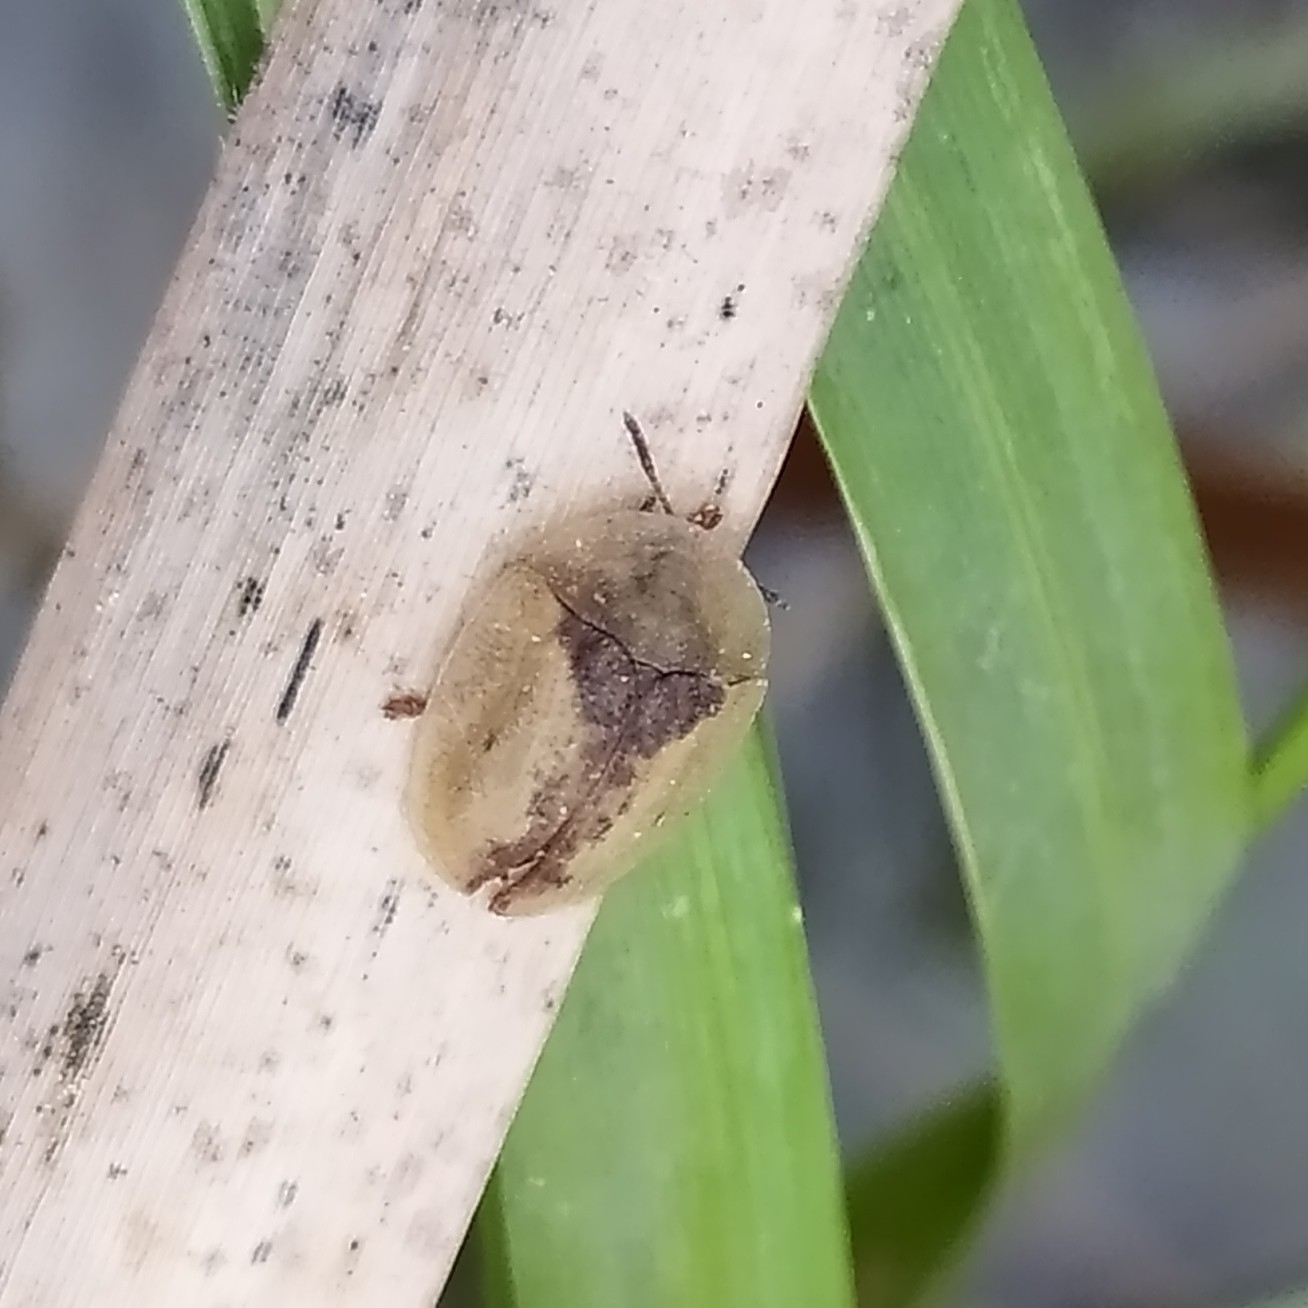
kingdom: Animalia
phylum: Arthropoda
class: Insecta
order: Coleoptera
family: Chrysomelidae
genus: Cassida
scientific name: Cassida vibex
